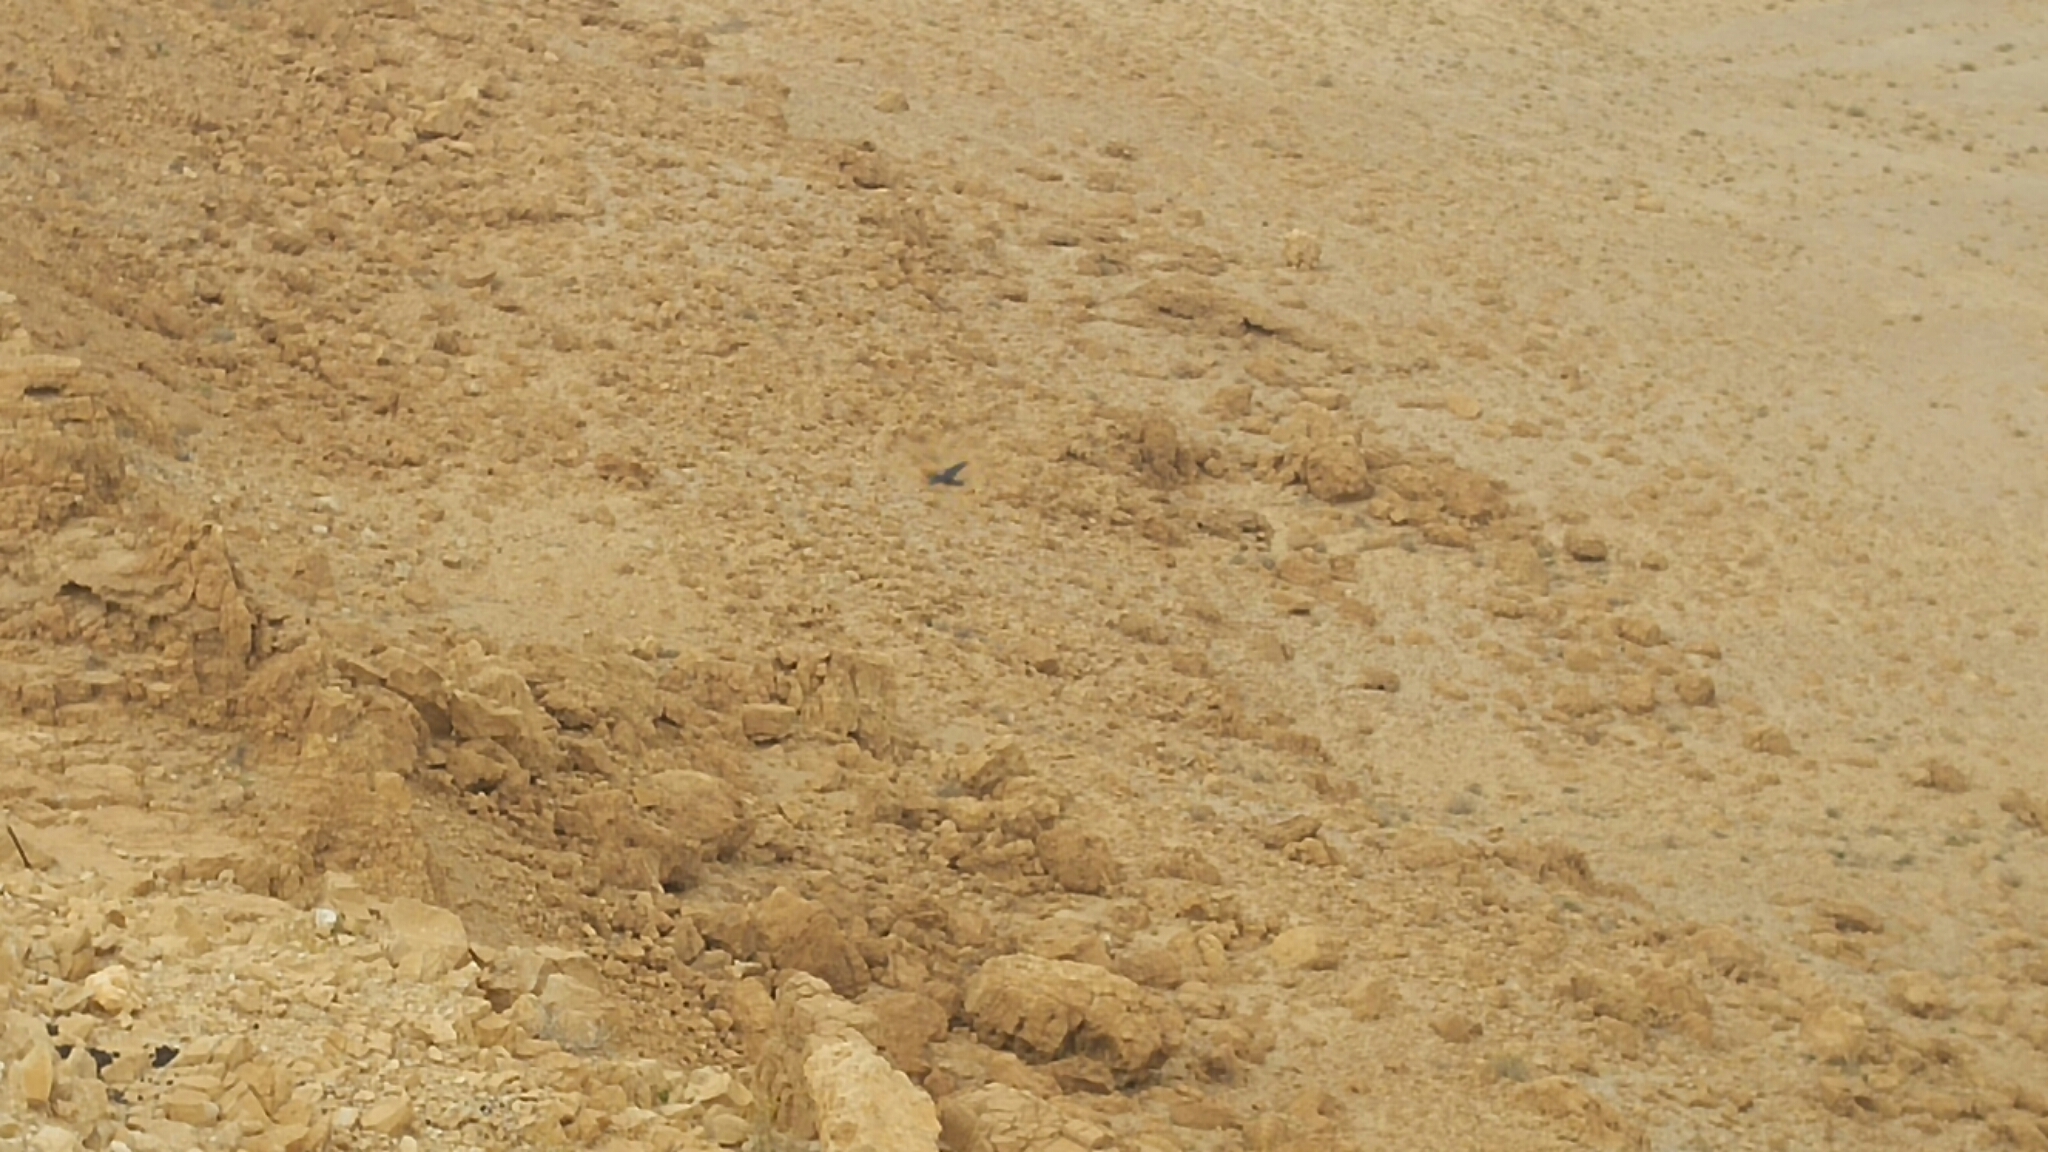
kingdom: Animalia
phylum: Chordata
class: Aves
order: Passeriformes
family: Corvidae
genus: Corvus
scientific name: Corvus ruficollis
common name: Brown-necked raven
